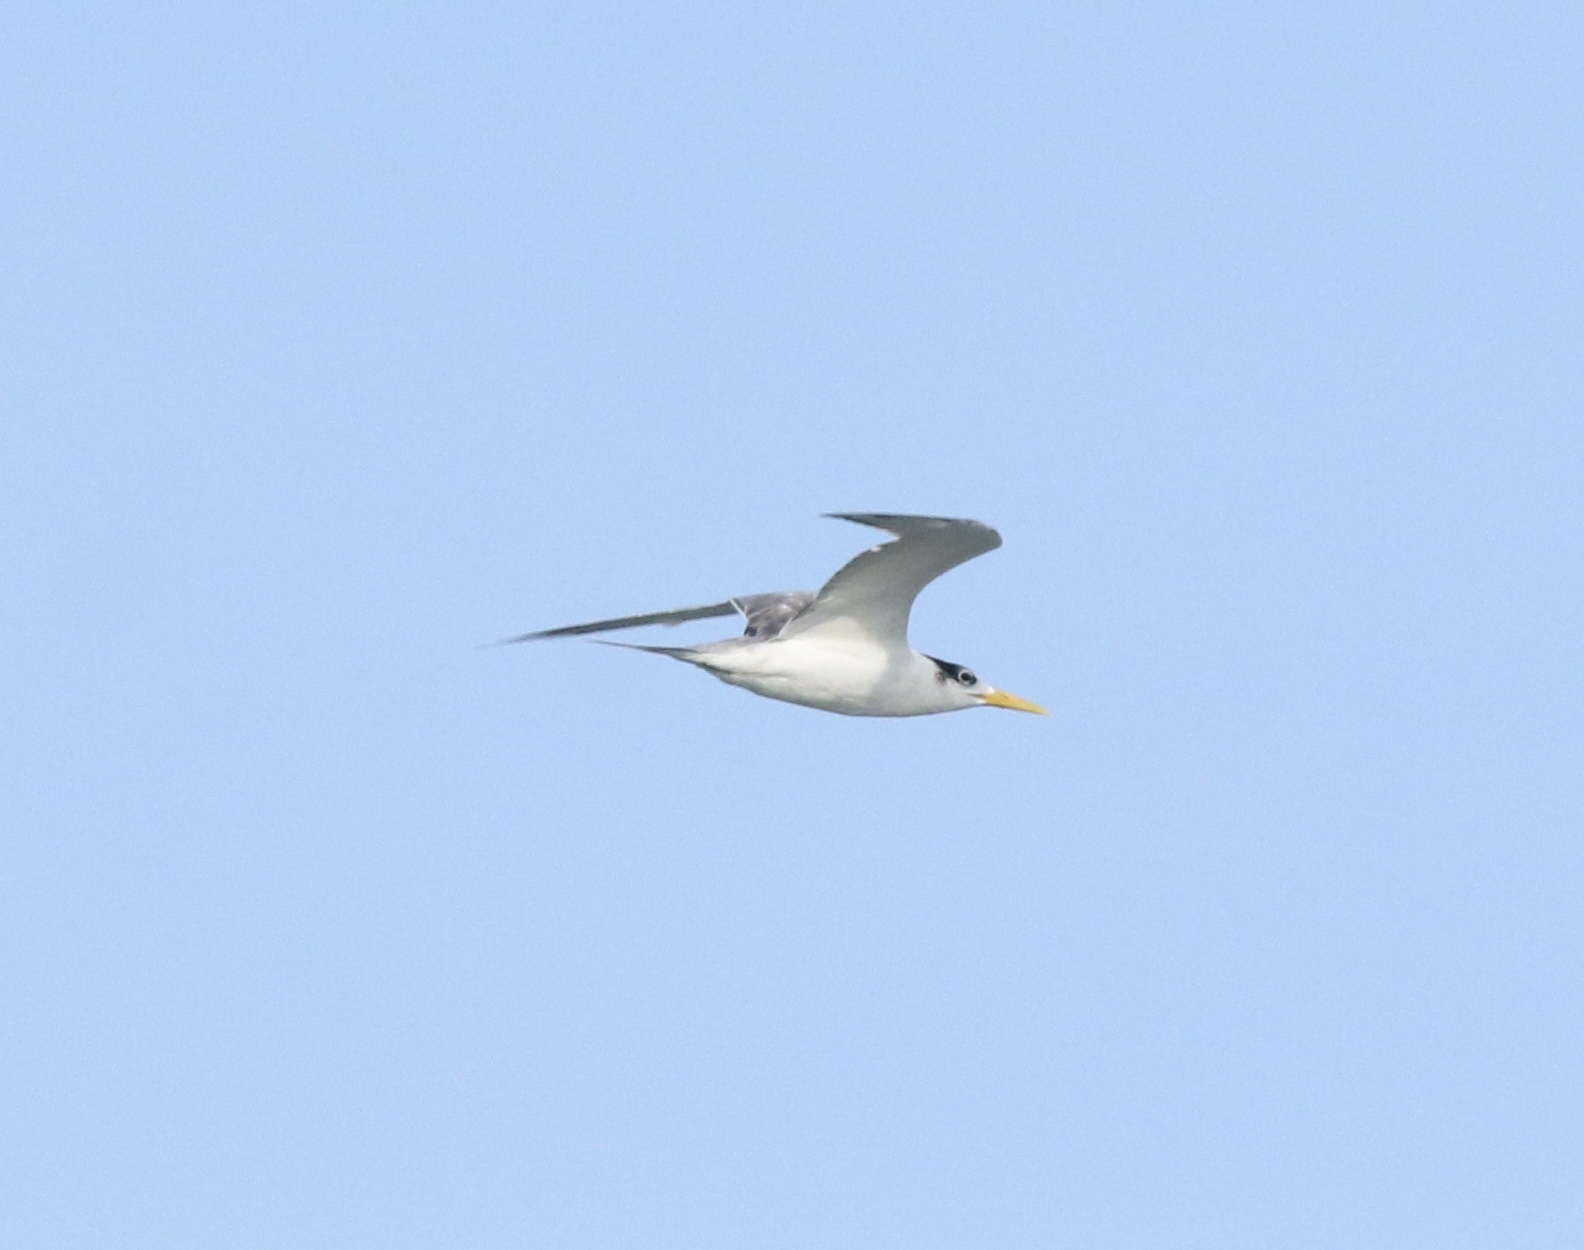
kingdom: Animalia
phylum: Chordata
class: Aves
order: Charadriiformes
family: Laridae
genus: Thalasseus
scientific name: Thalasseus bergii
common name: Greater crested tern
